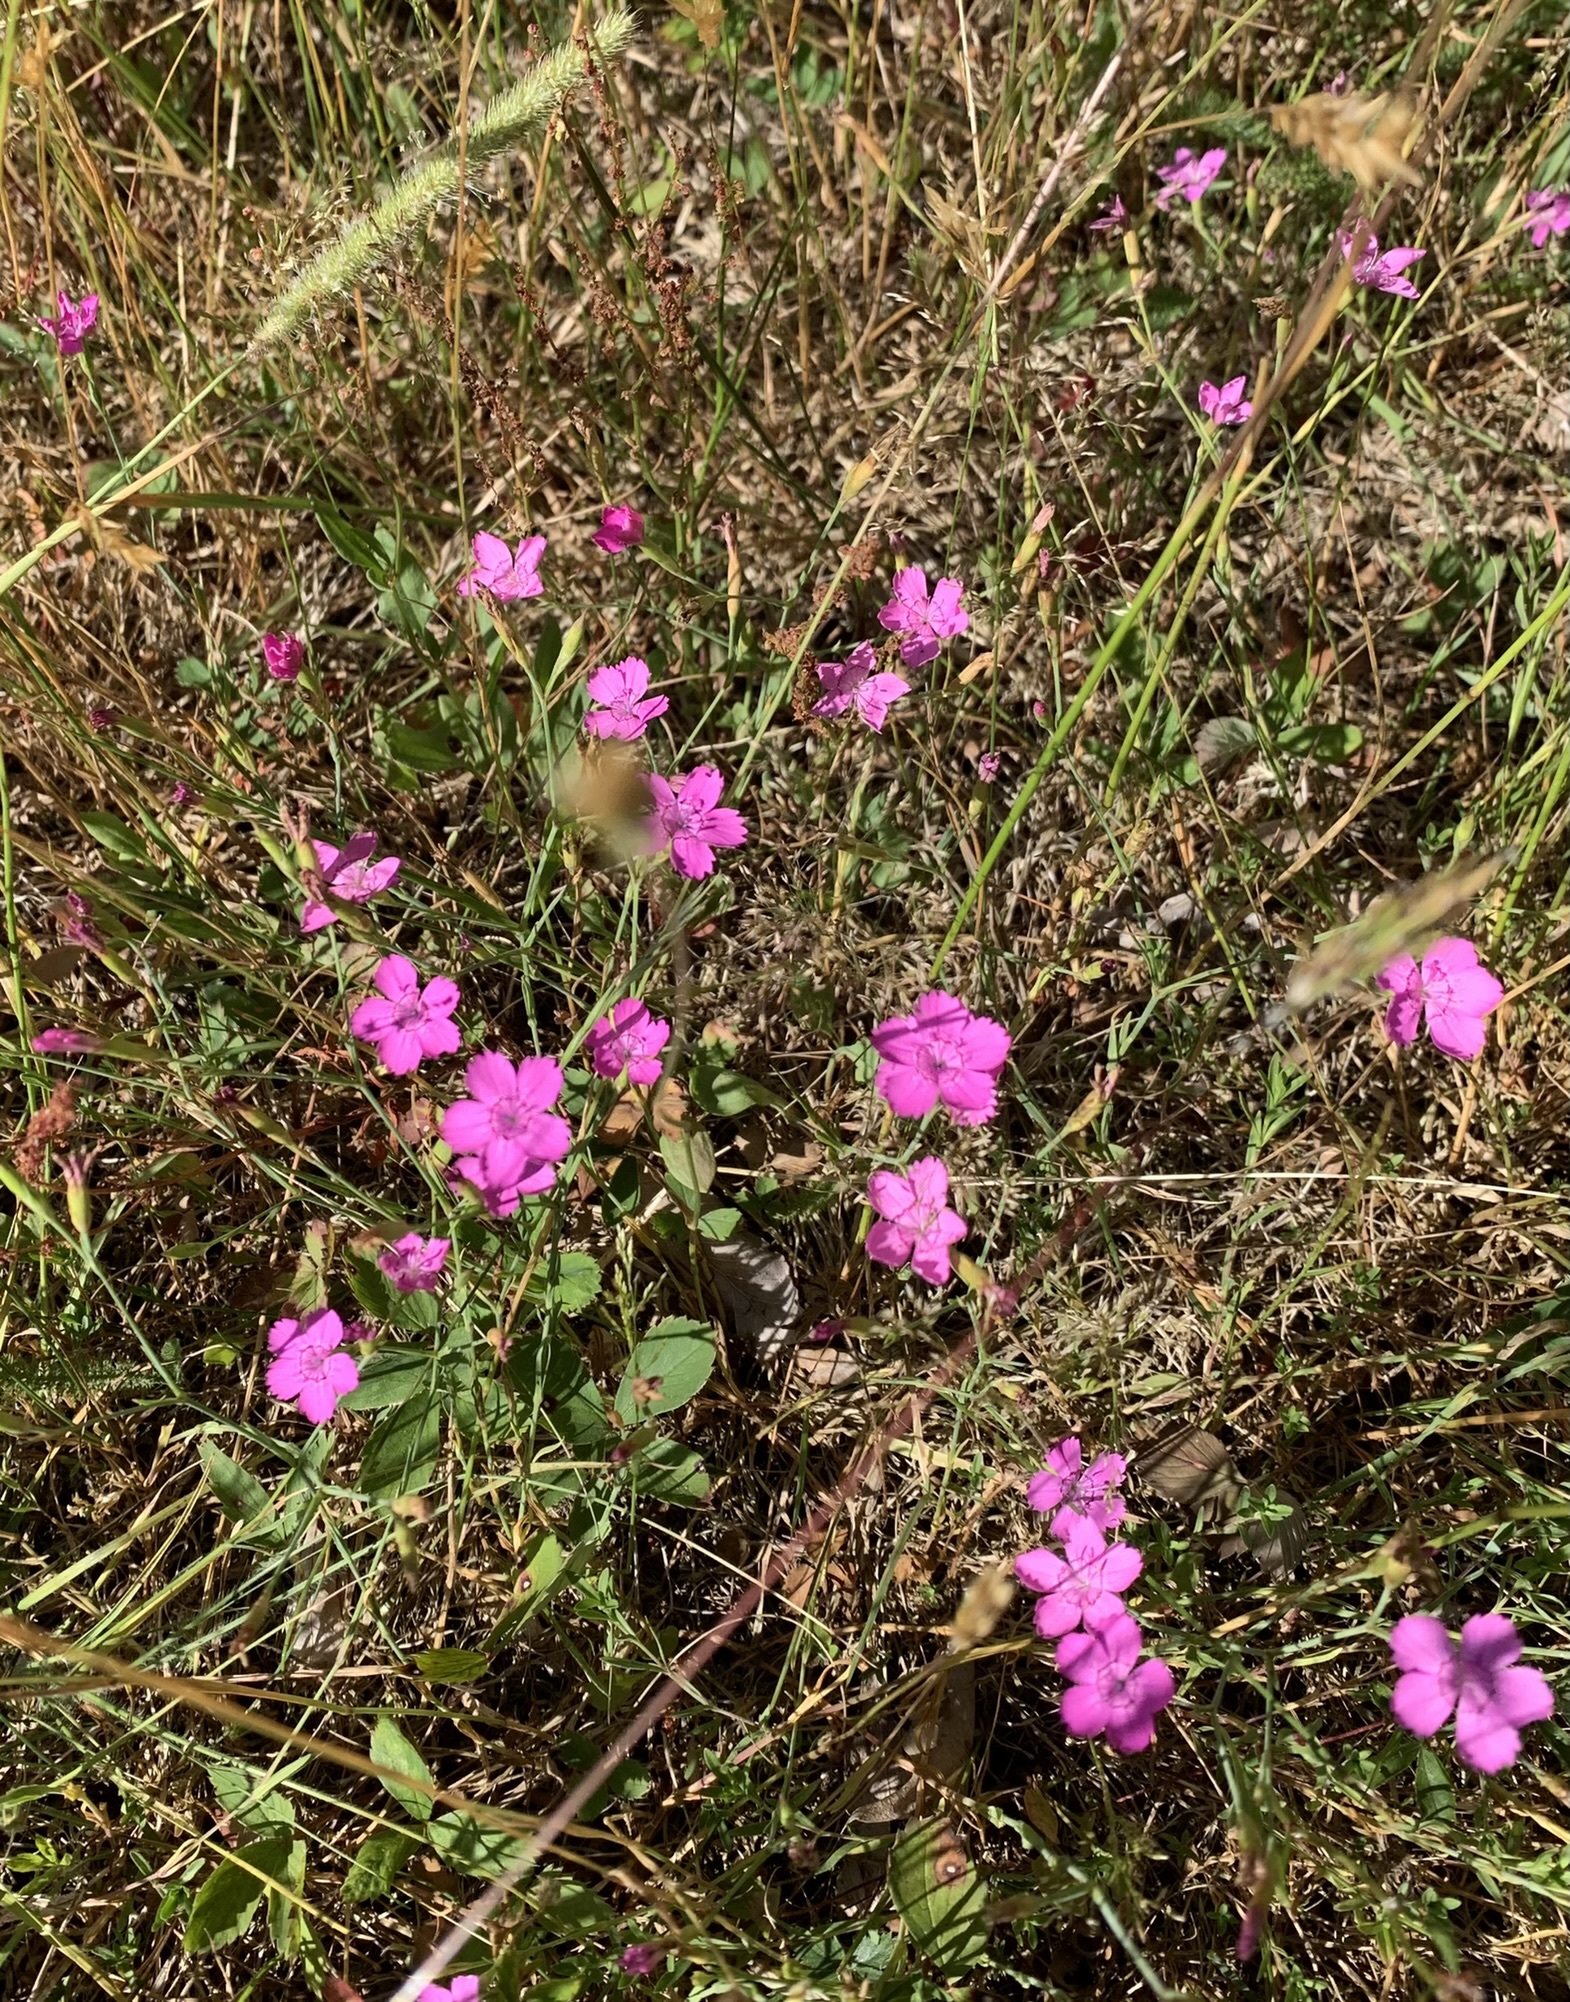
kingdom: Plantae
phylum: Tracheophyta
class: Magnoliopsida
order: Caryophyllales
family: Caryophyllaceae
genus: Dianthus
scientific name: Dianthus deltoides
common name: Maiden pink
